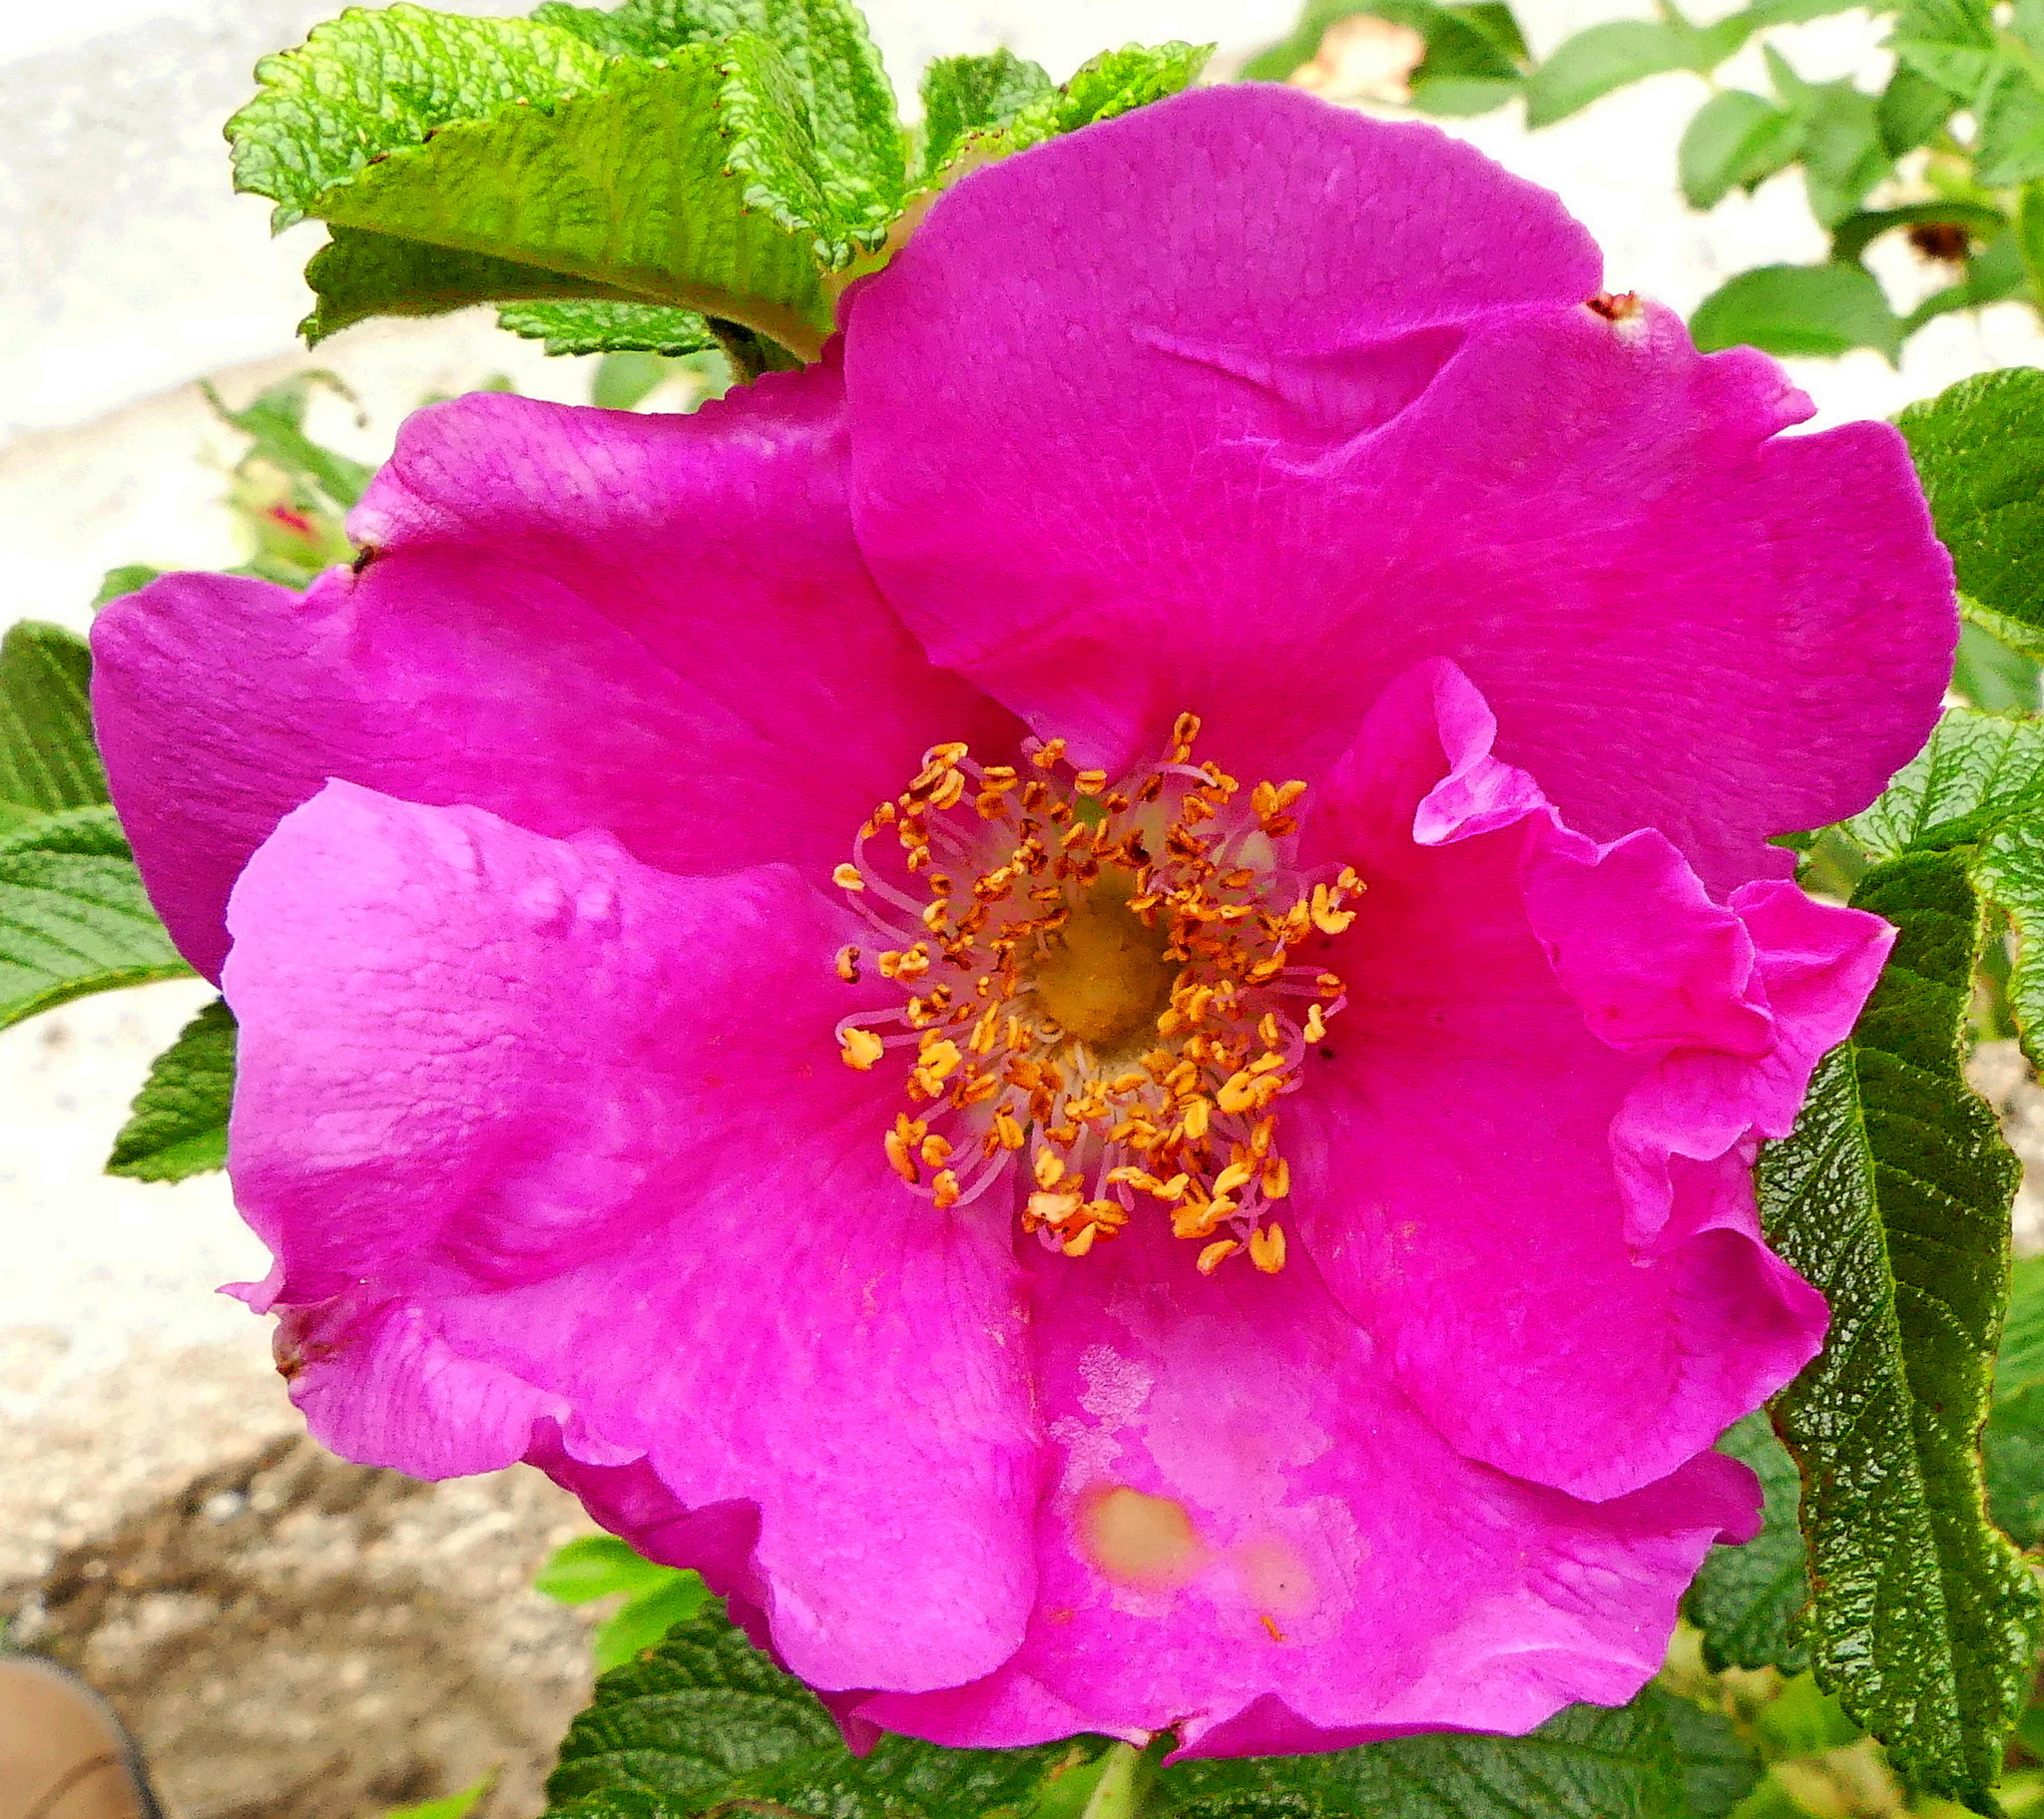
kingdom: Plantae
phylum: Tracheophyta
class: Magnoliopsida
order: Rosales
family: Rosaceae
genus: Rosa
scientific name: Rosa rugosa
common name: Japanese rose
